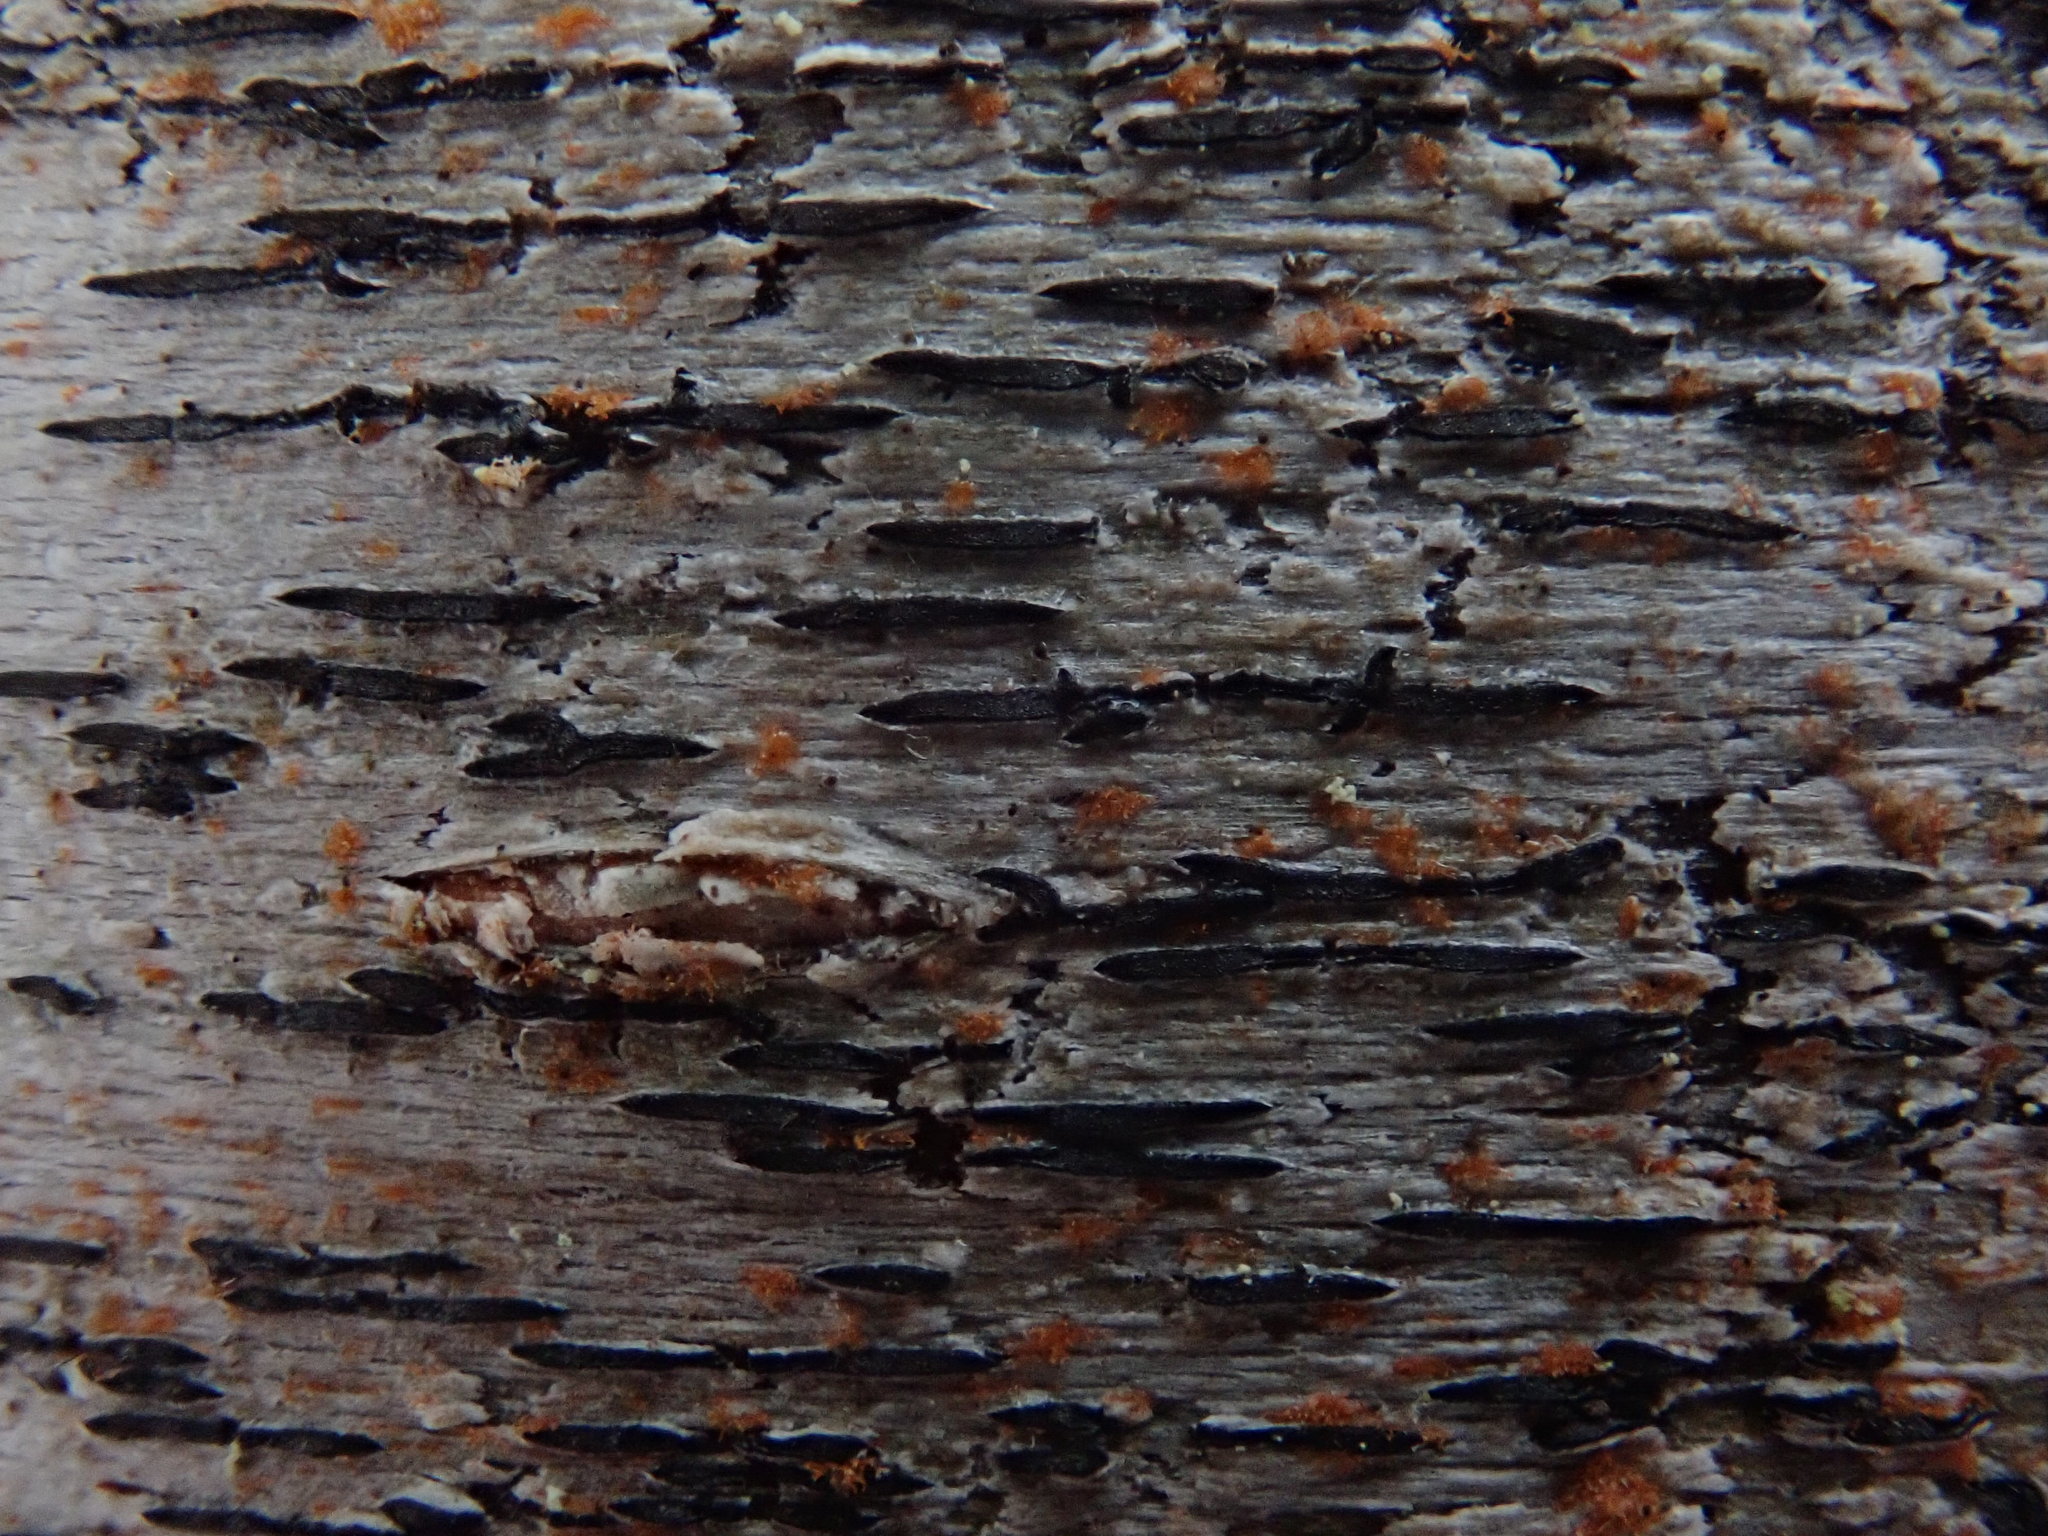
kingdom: Fungi
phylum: Ascomycota
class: Lecanoromycetes
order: Ostropales
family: Graphidaceae
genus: Graphis
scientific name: Graphis scripta
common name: Script lichen
